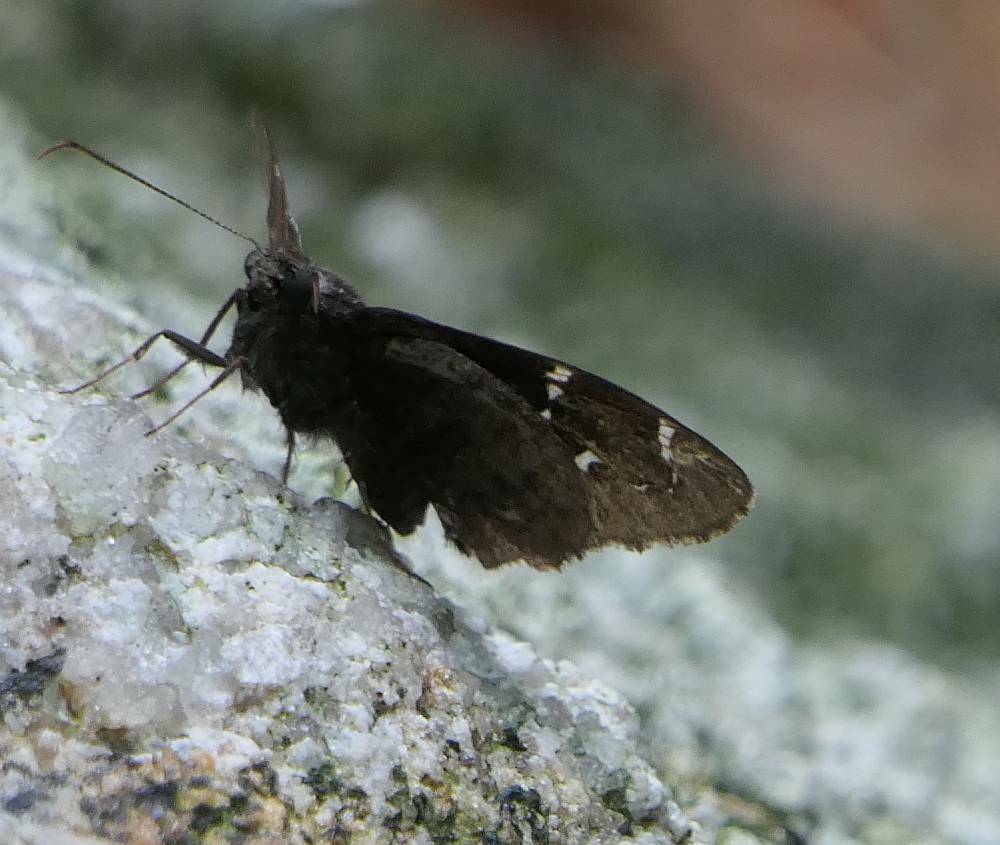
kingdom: Animalia
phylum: Arthropoda
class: Insecta
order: Lepidoptera
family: Hesperiidae
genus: Thorybes
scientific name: Thorybes pylades
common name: Northern cloudywing
